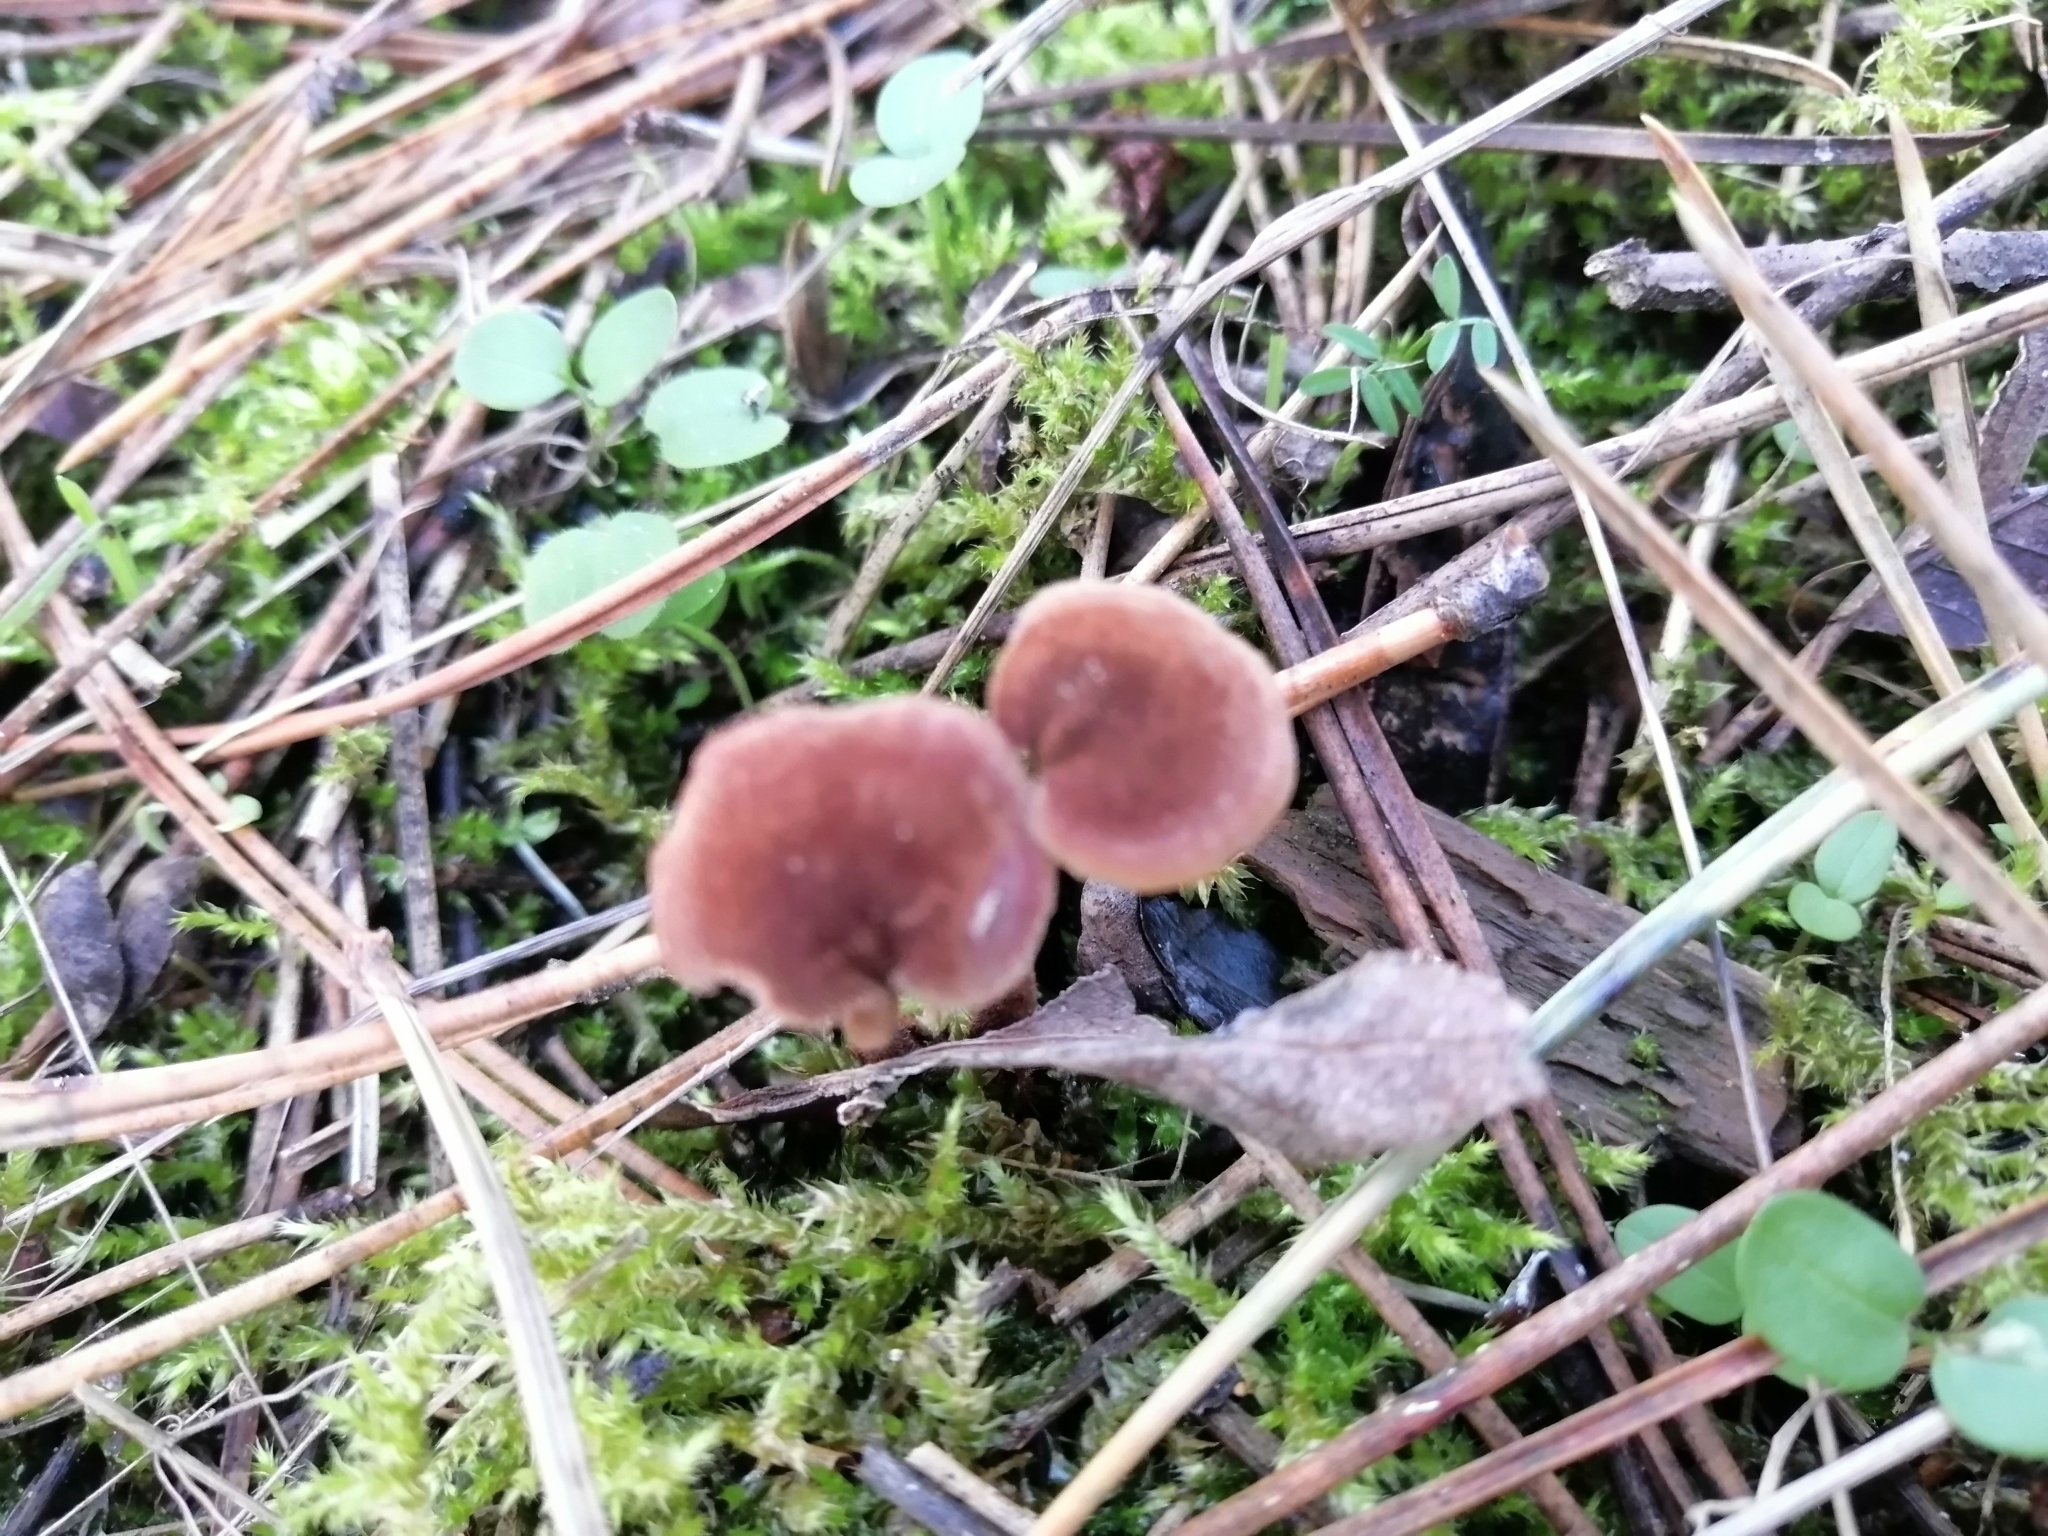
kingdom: Fungi
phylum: Basidiomycota
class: Agaricomycetes
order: Russulales
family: Auriscalpiaceae
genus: Auriscalpium
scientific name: Auriscalpium vulgare
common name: Earpick fungus
